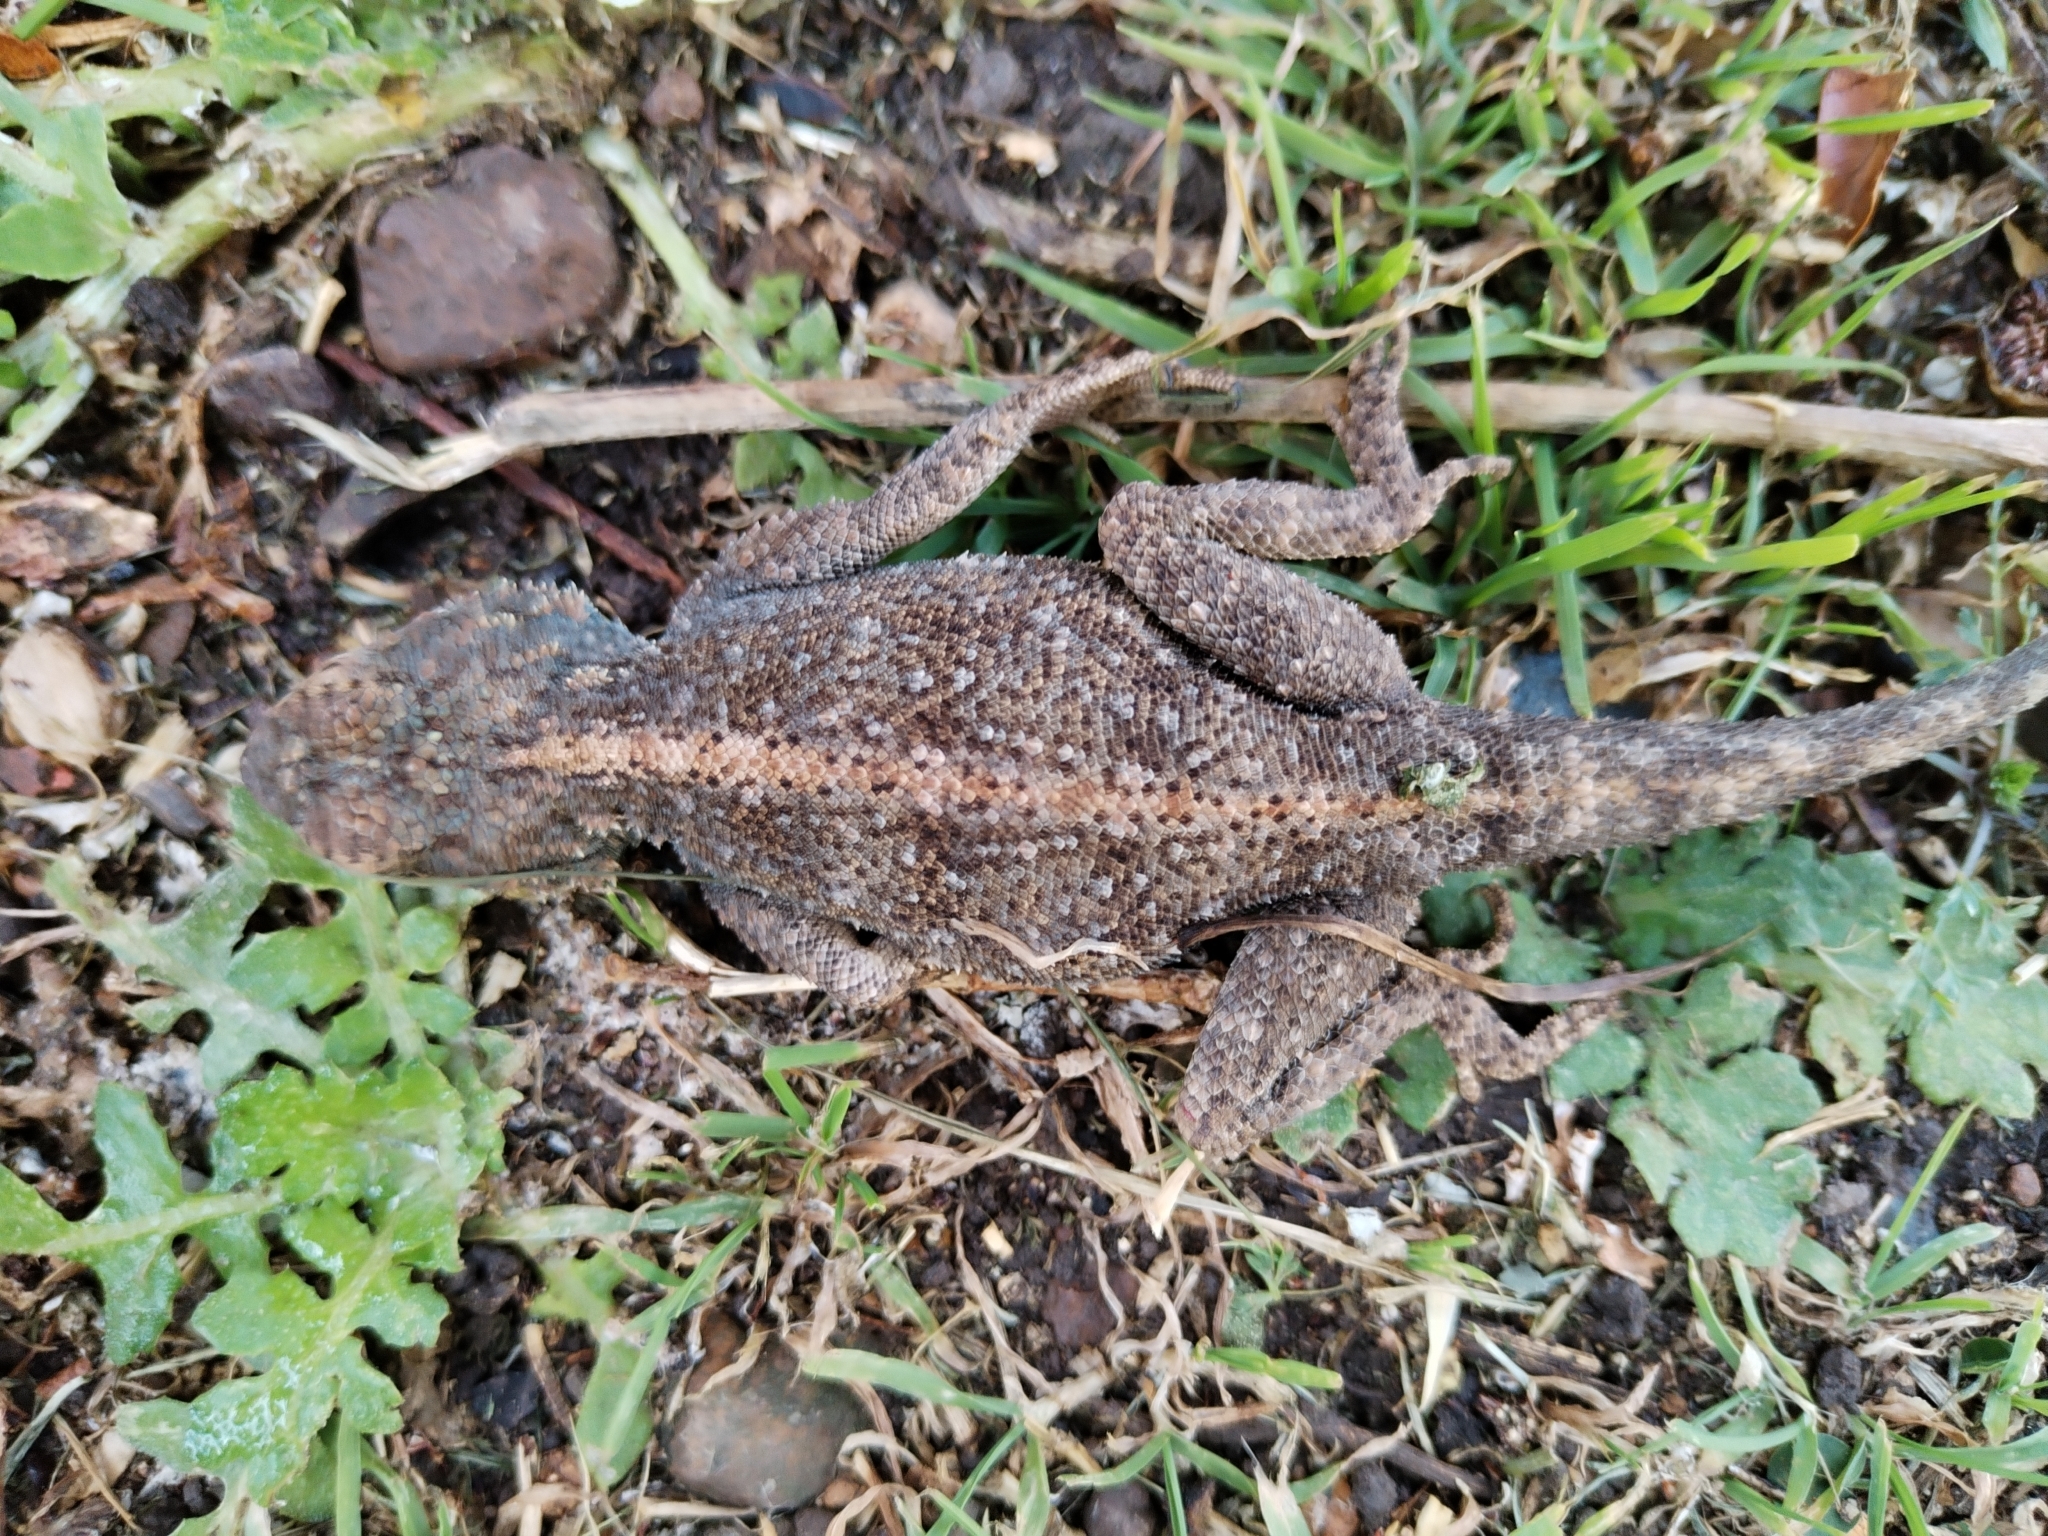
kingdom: Animalia
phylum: Chordata
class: Squamata
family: Agamidae
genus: Agama
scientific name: Agama atra
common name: Southern african rock agama
